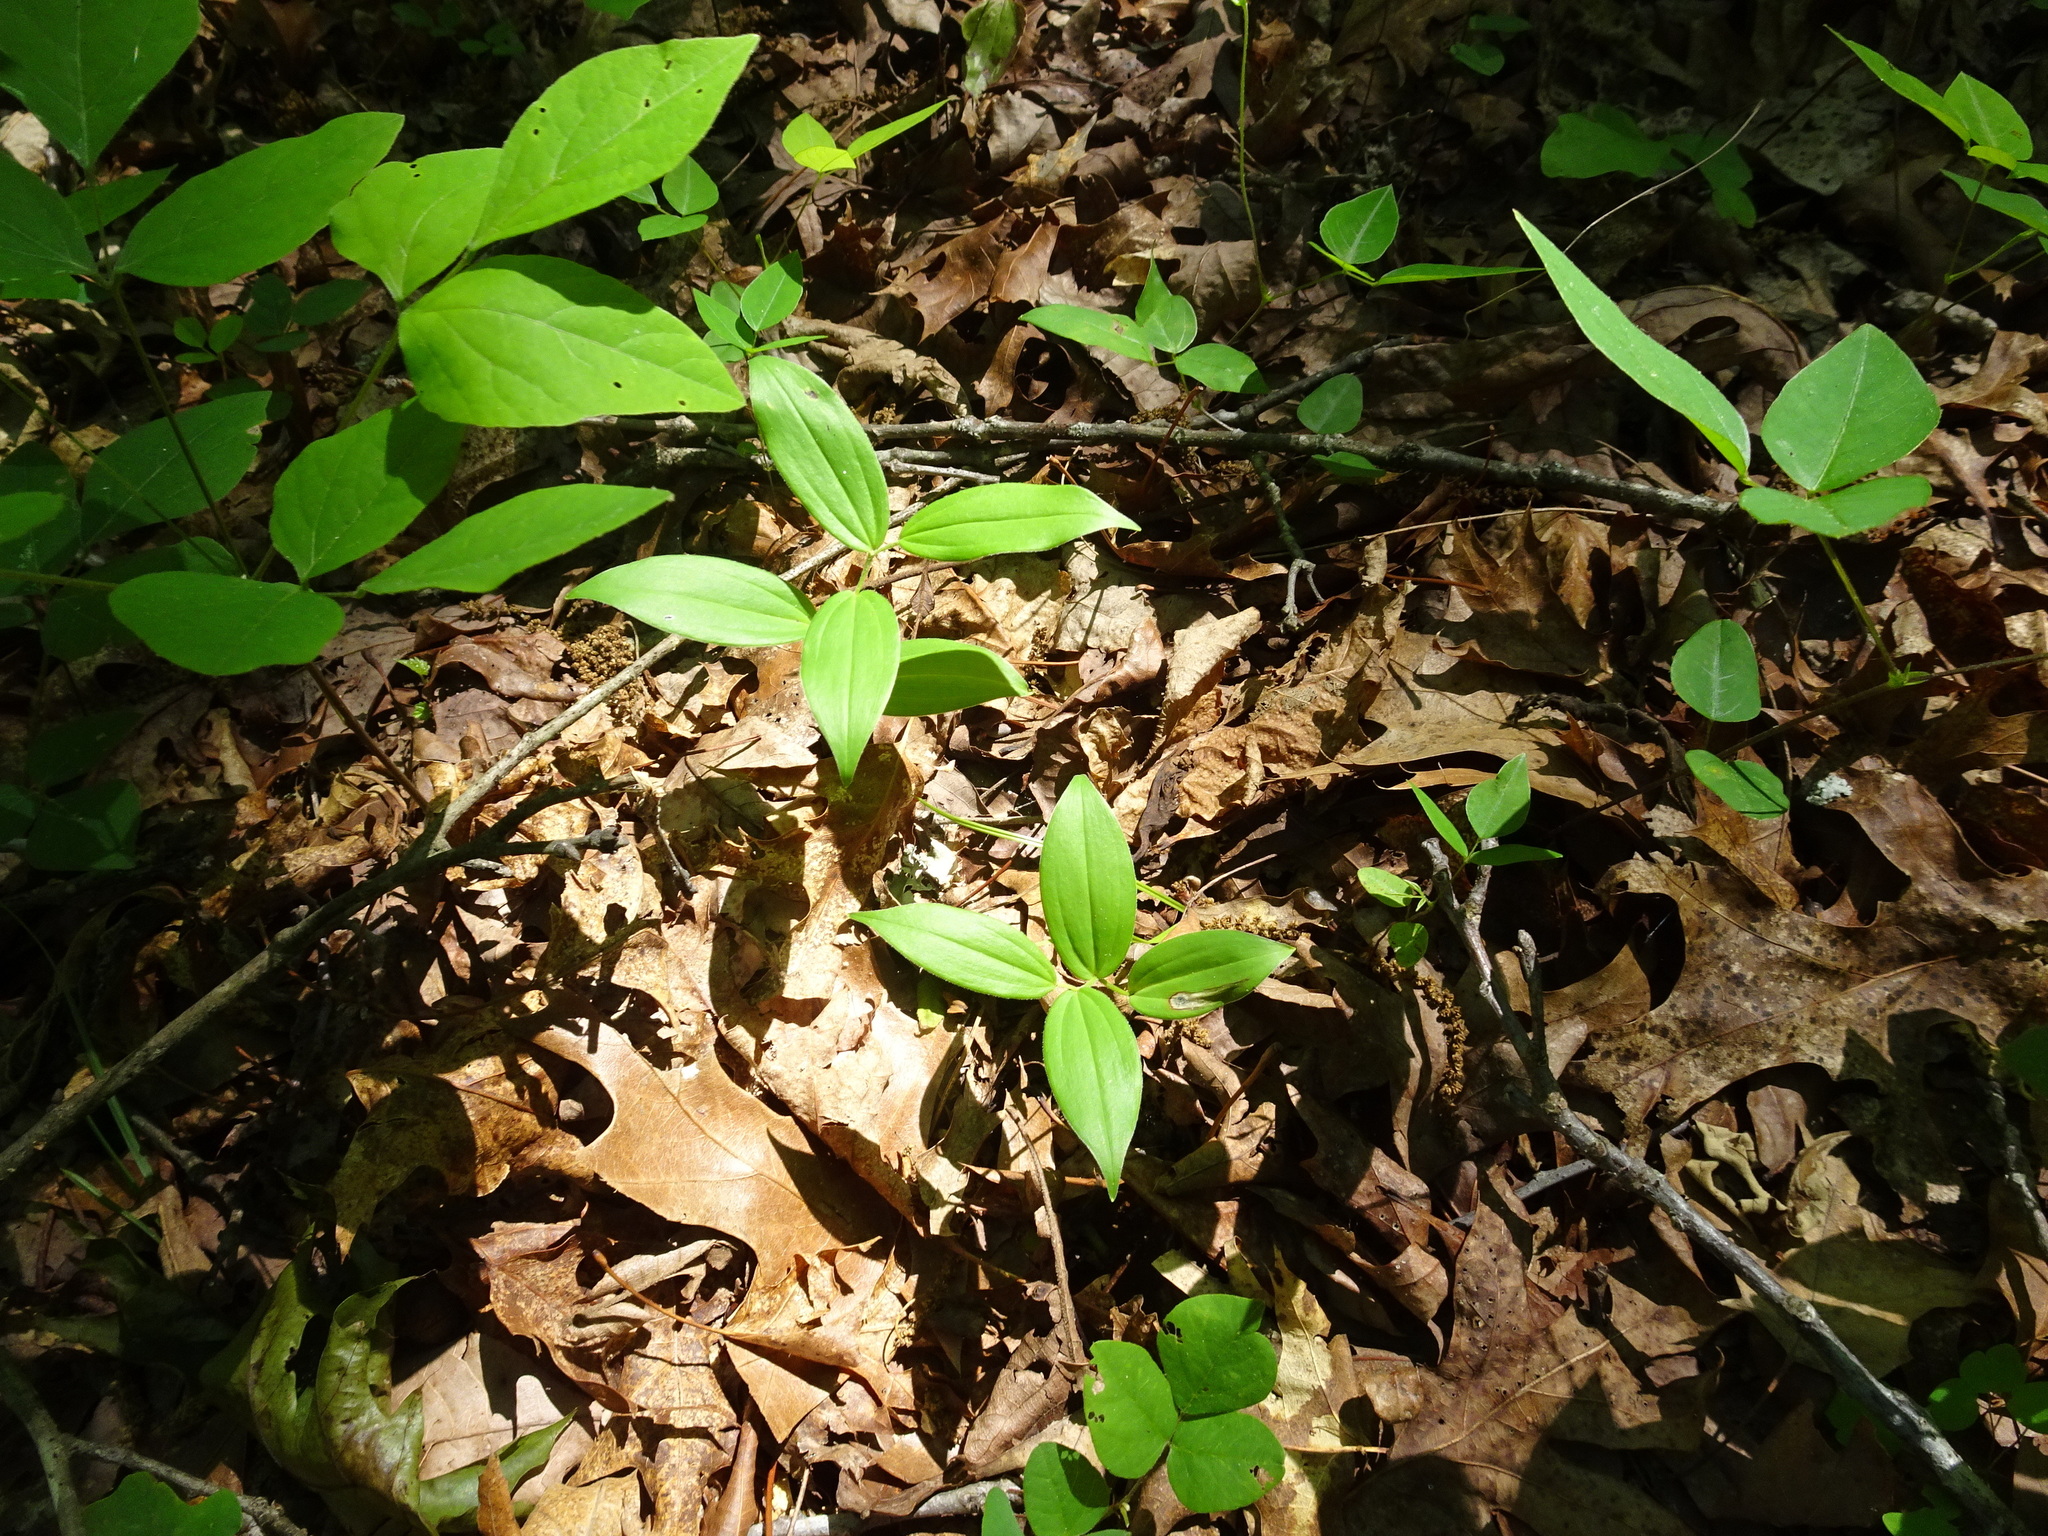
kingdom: Plantae
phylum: Tracheophyta
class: Liliopsida
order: Asparagales
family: Asparagaceae
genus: Maianthemum
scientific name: Maianthemum racemosum
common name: False spikenard
